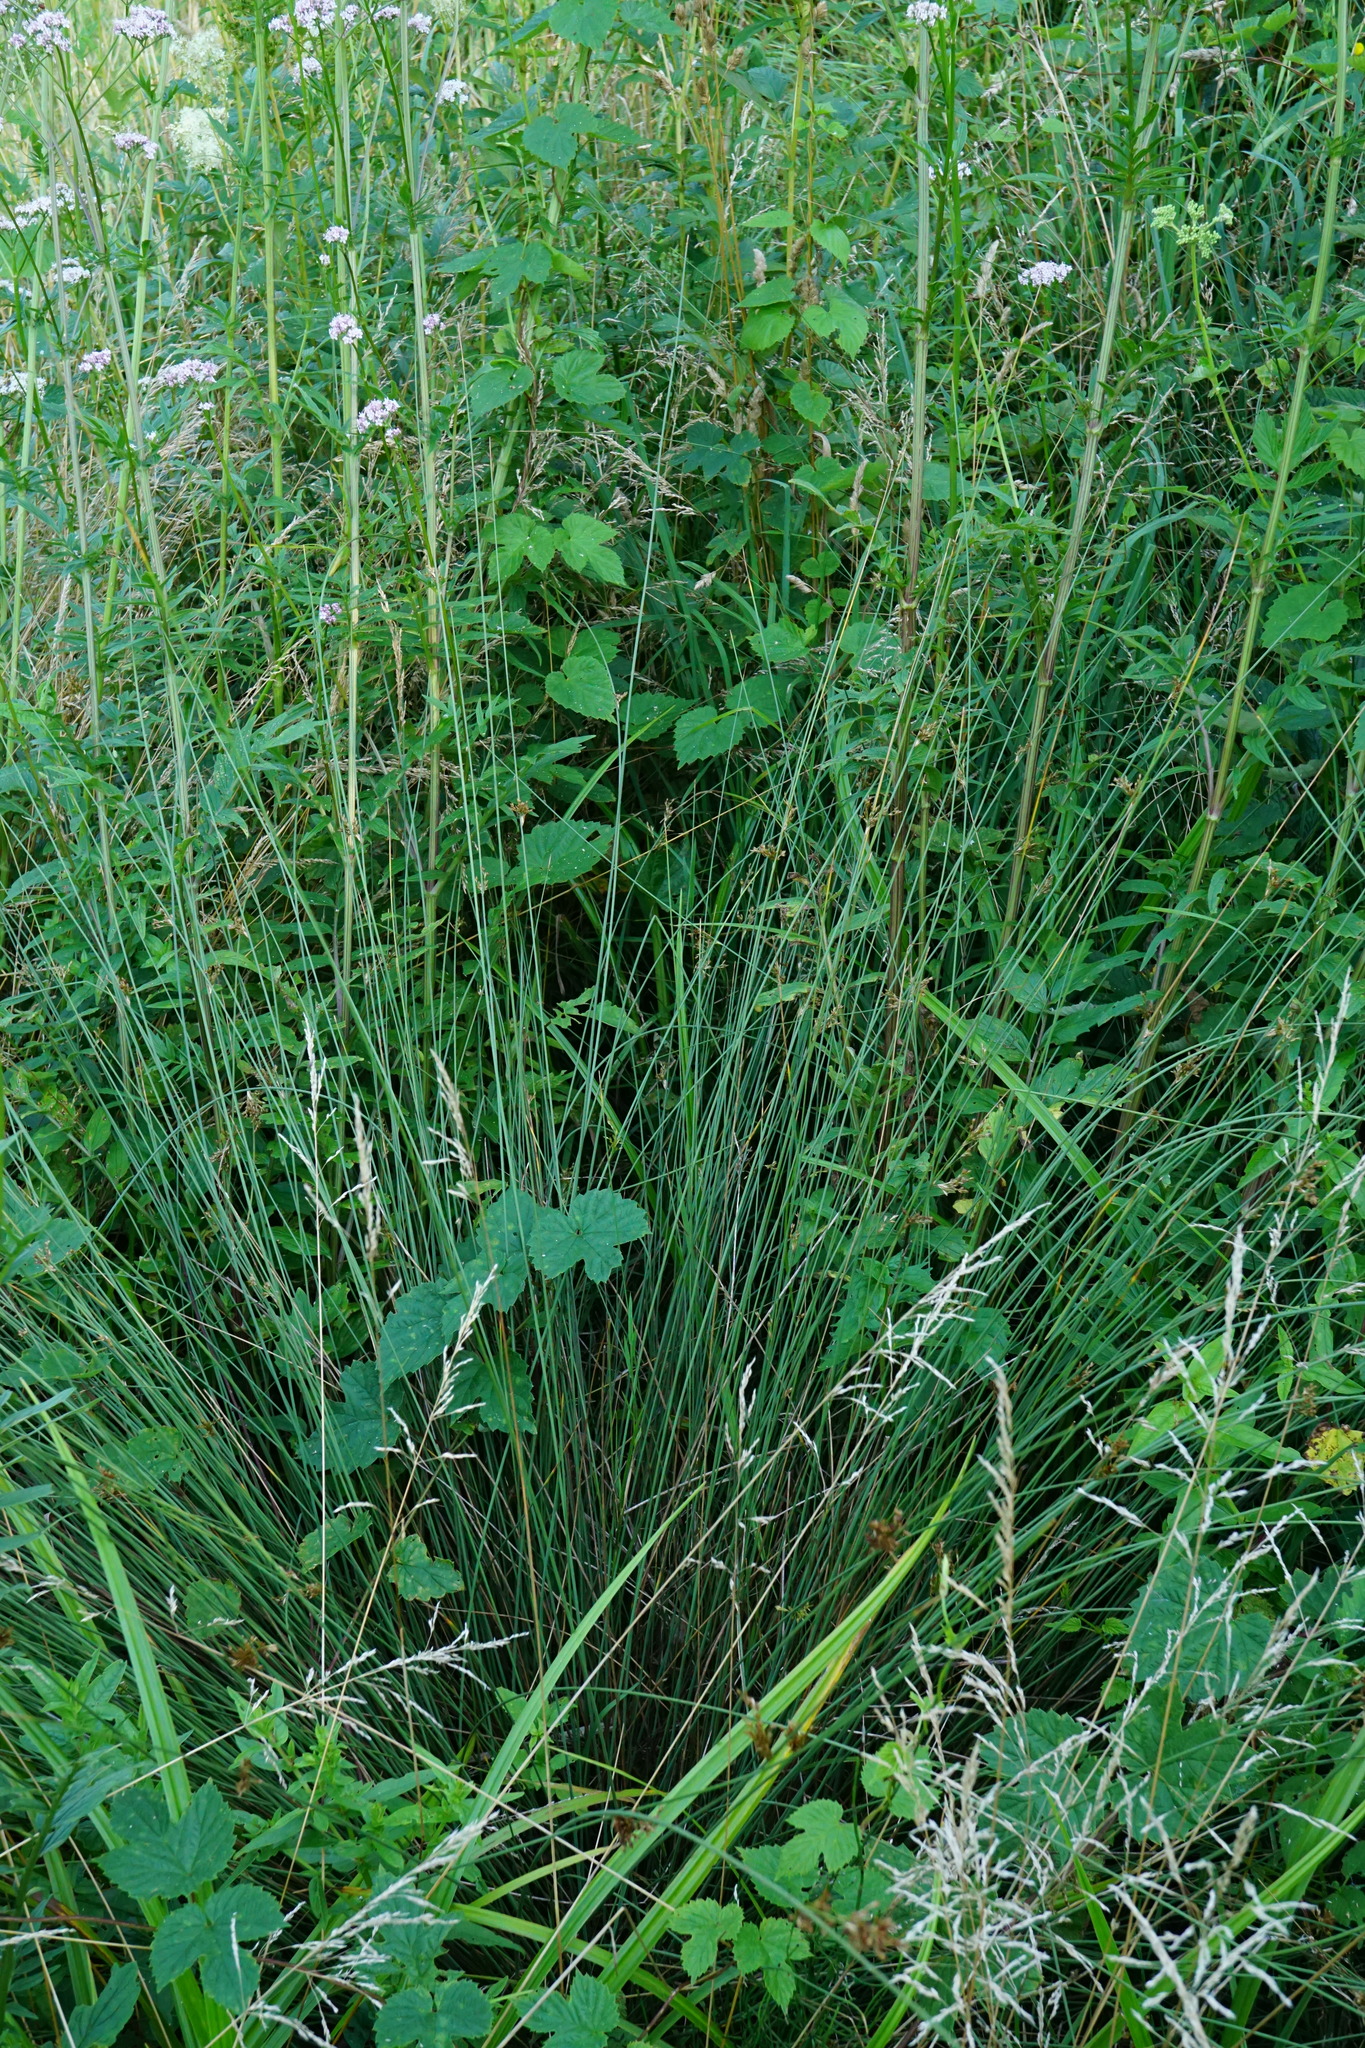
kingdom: Plantae
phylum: Tracheophyta
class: Liliopsida
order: Poales
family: Juncaceae
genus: Juncus
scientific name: Juncus inflexus
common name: Hard rush
